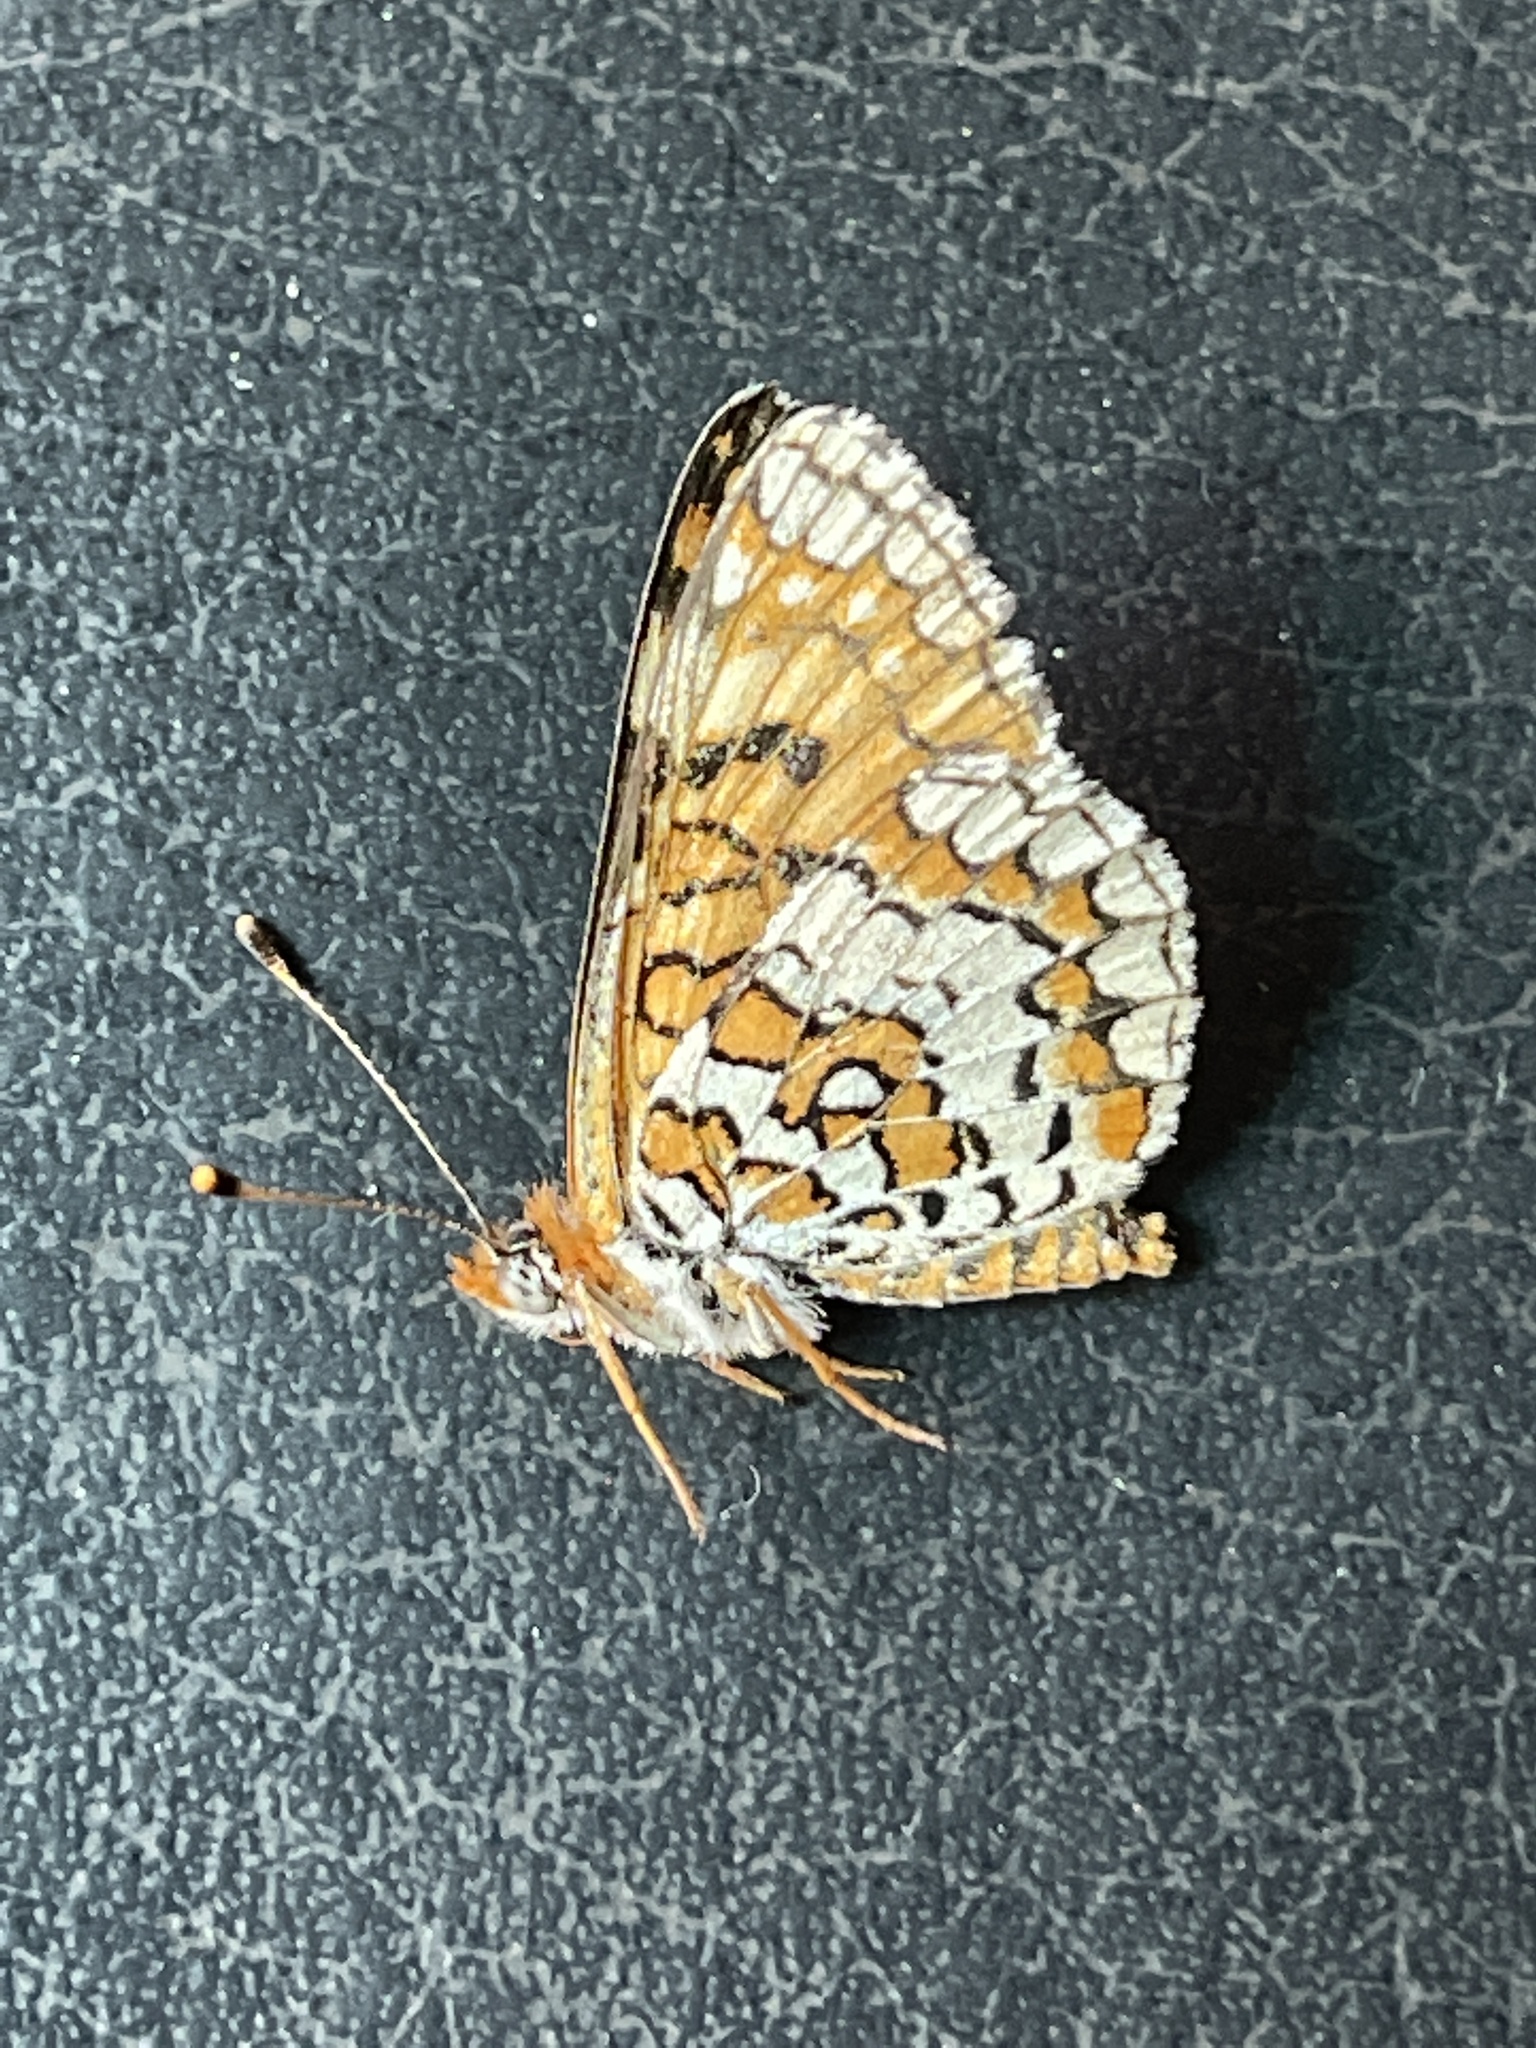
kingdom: Animalia
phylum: Arthropoda
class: Insecta
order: Lepidoptera
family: Nymphalidae
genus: Poladryas
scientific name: Poladryas minuta
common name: Dotted checkerspot
